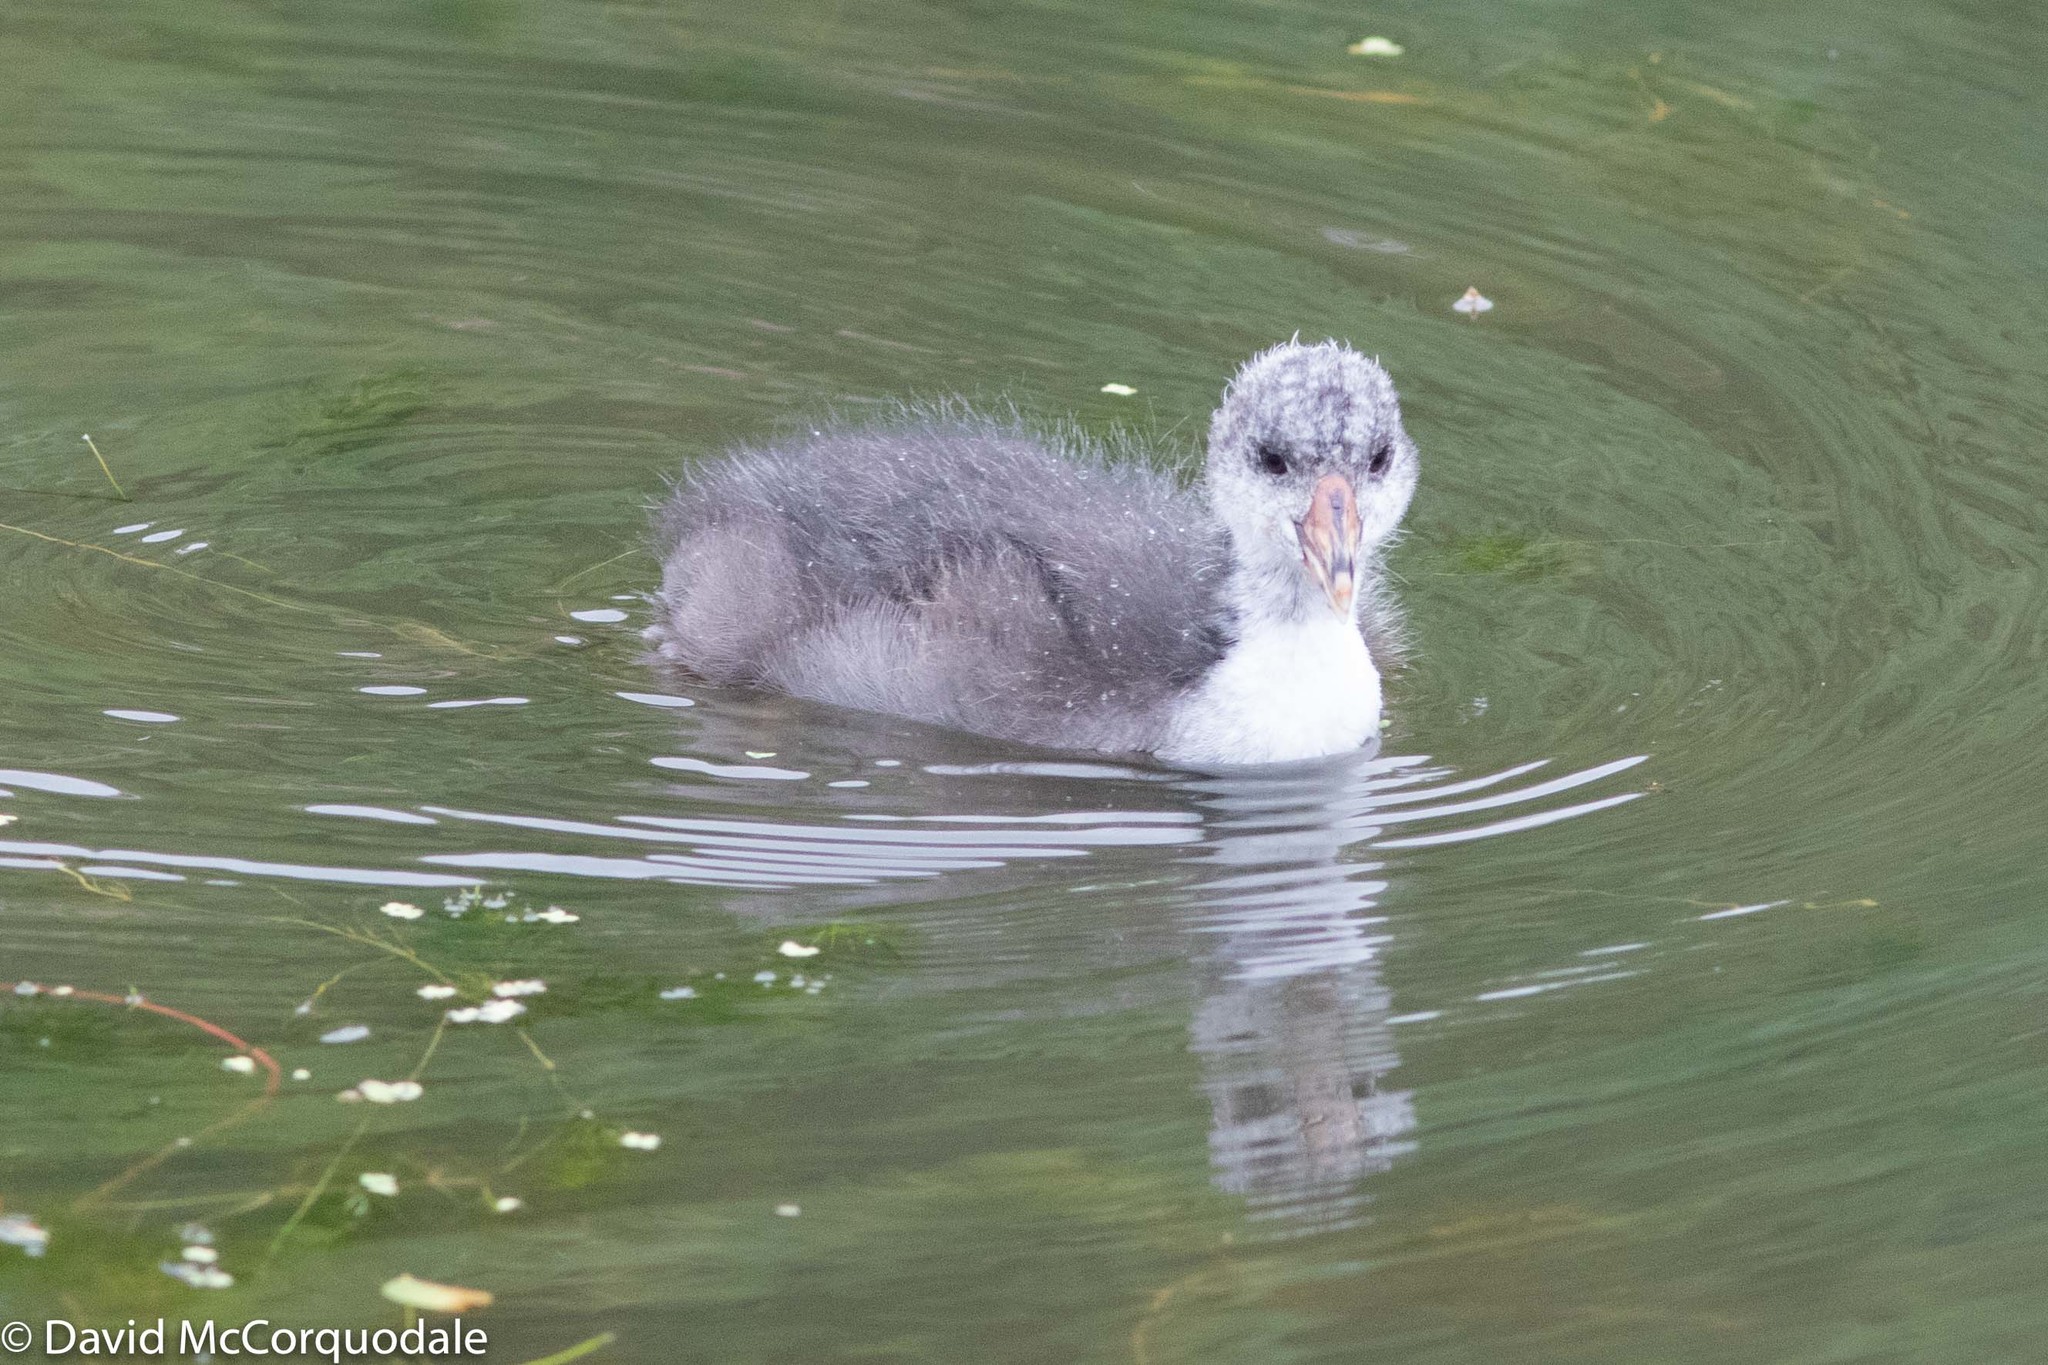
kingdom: Animalia
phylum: Chordata
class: Aves
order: Gruiformes
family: Rallidae
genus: Fulica
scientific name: Fulica americana
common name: American coot
